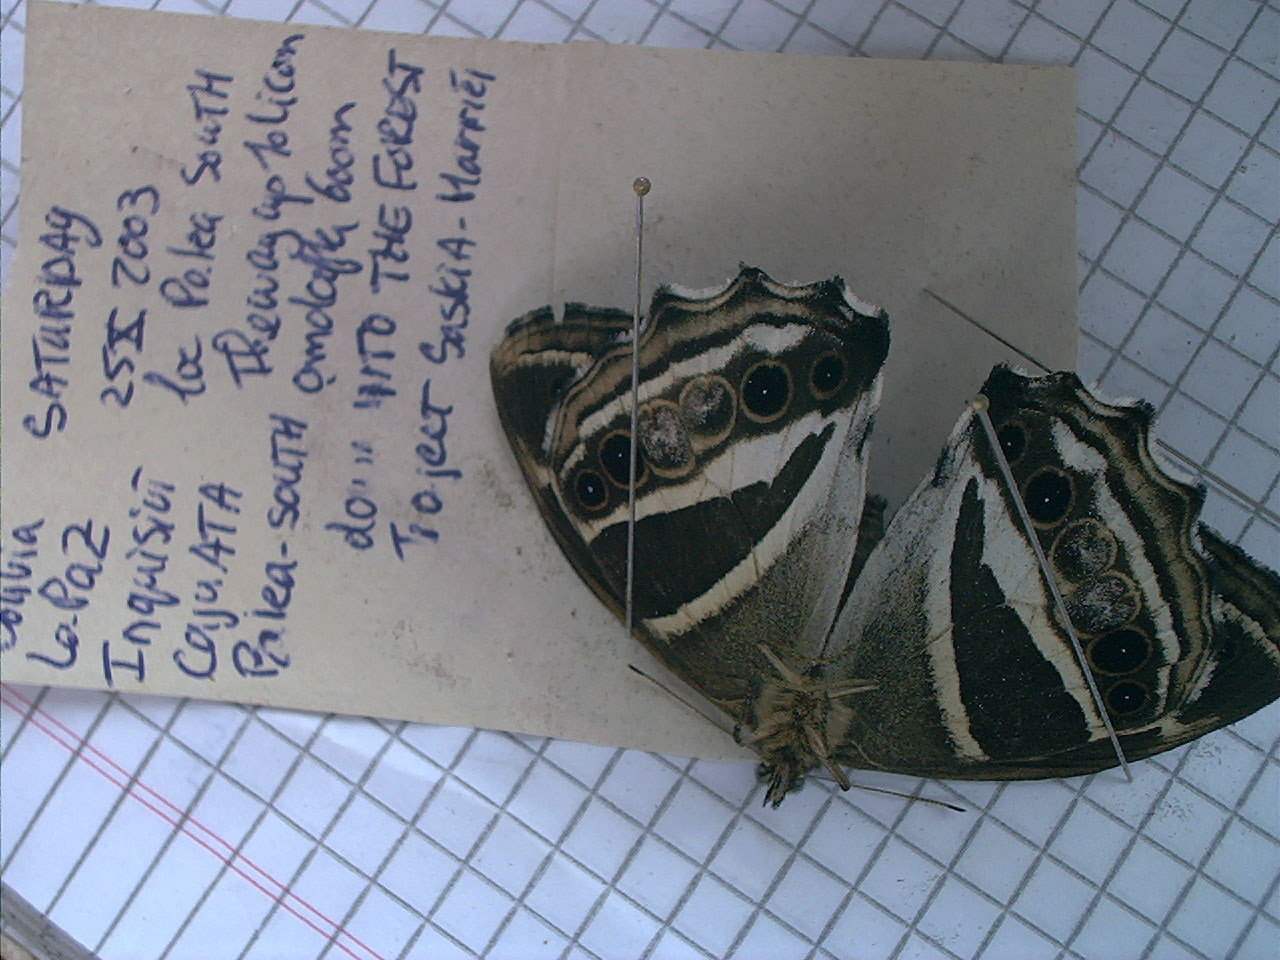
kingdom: Animalia
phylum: Arthropoda
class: Insecta
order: Lepidoptera
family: Nymphalidae
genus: Parataygetis
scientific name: Parataygetis albinotata
